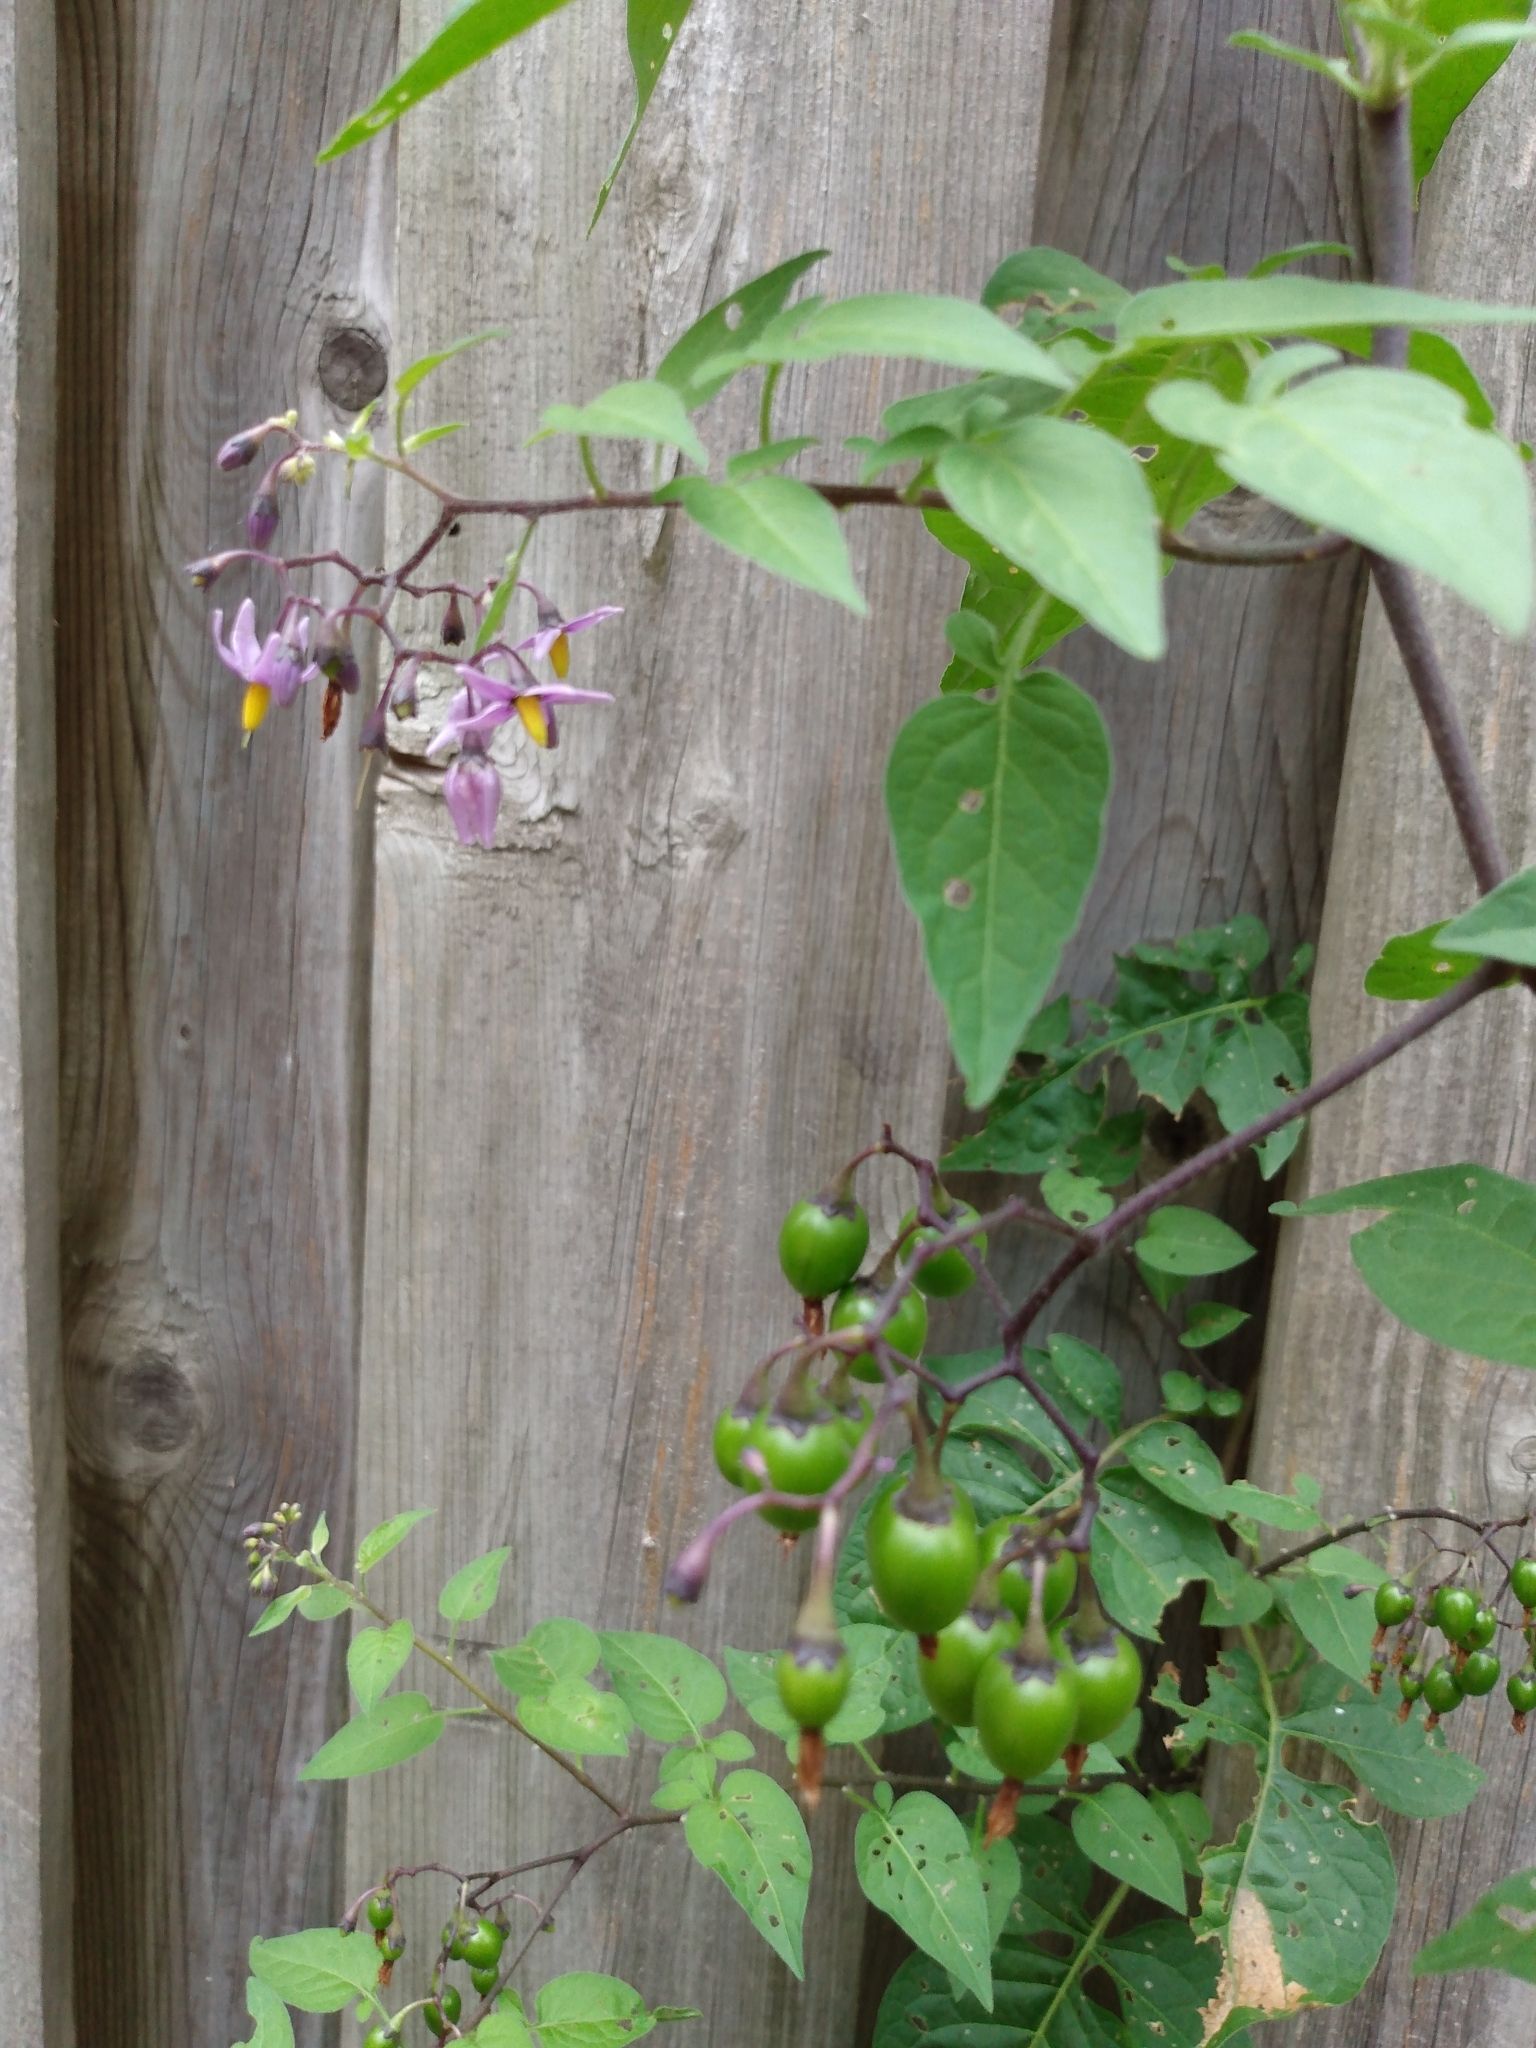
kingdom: Plantae
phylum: Tracheophyta
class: Magnoliopsida
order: Solanales
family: Solanaceae
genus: Solanum
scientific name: Solanum dulcamara
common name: Climbing nightshade
